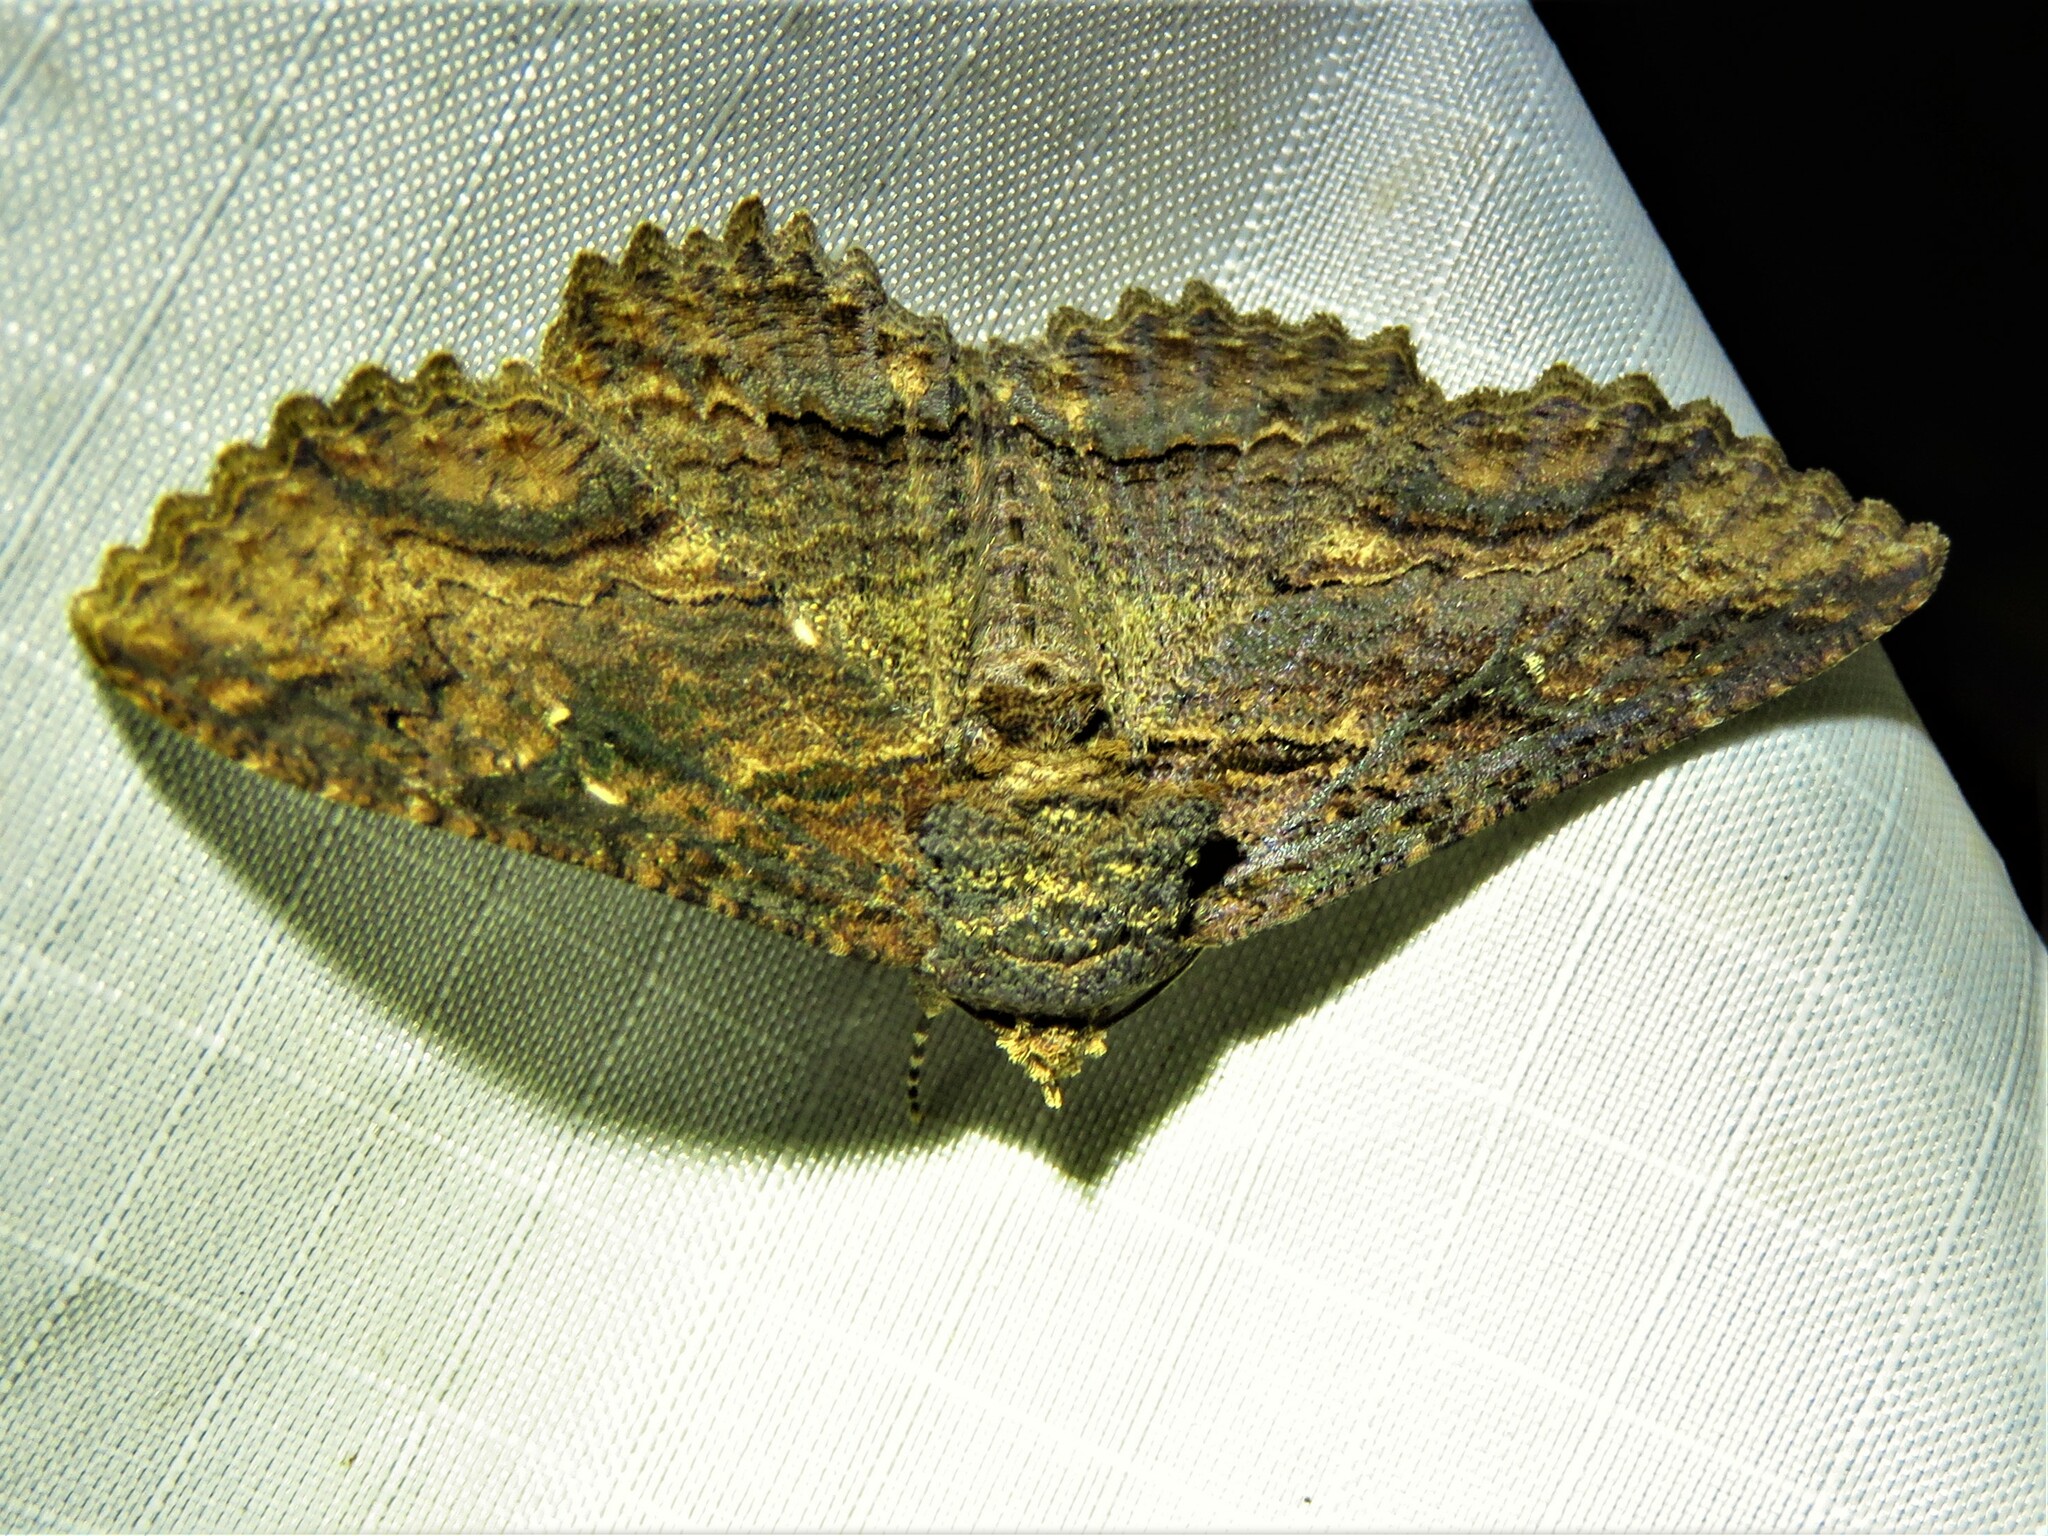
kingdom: Animalia
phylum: Arthropoda
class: Insecta
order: Lepidoptera
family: Erebidae
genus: Zale
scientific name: Zale lunata
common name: Lunate zale moth
